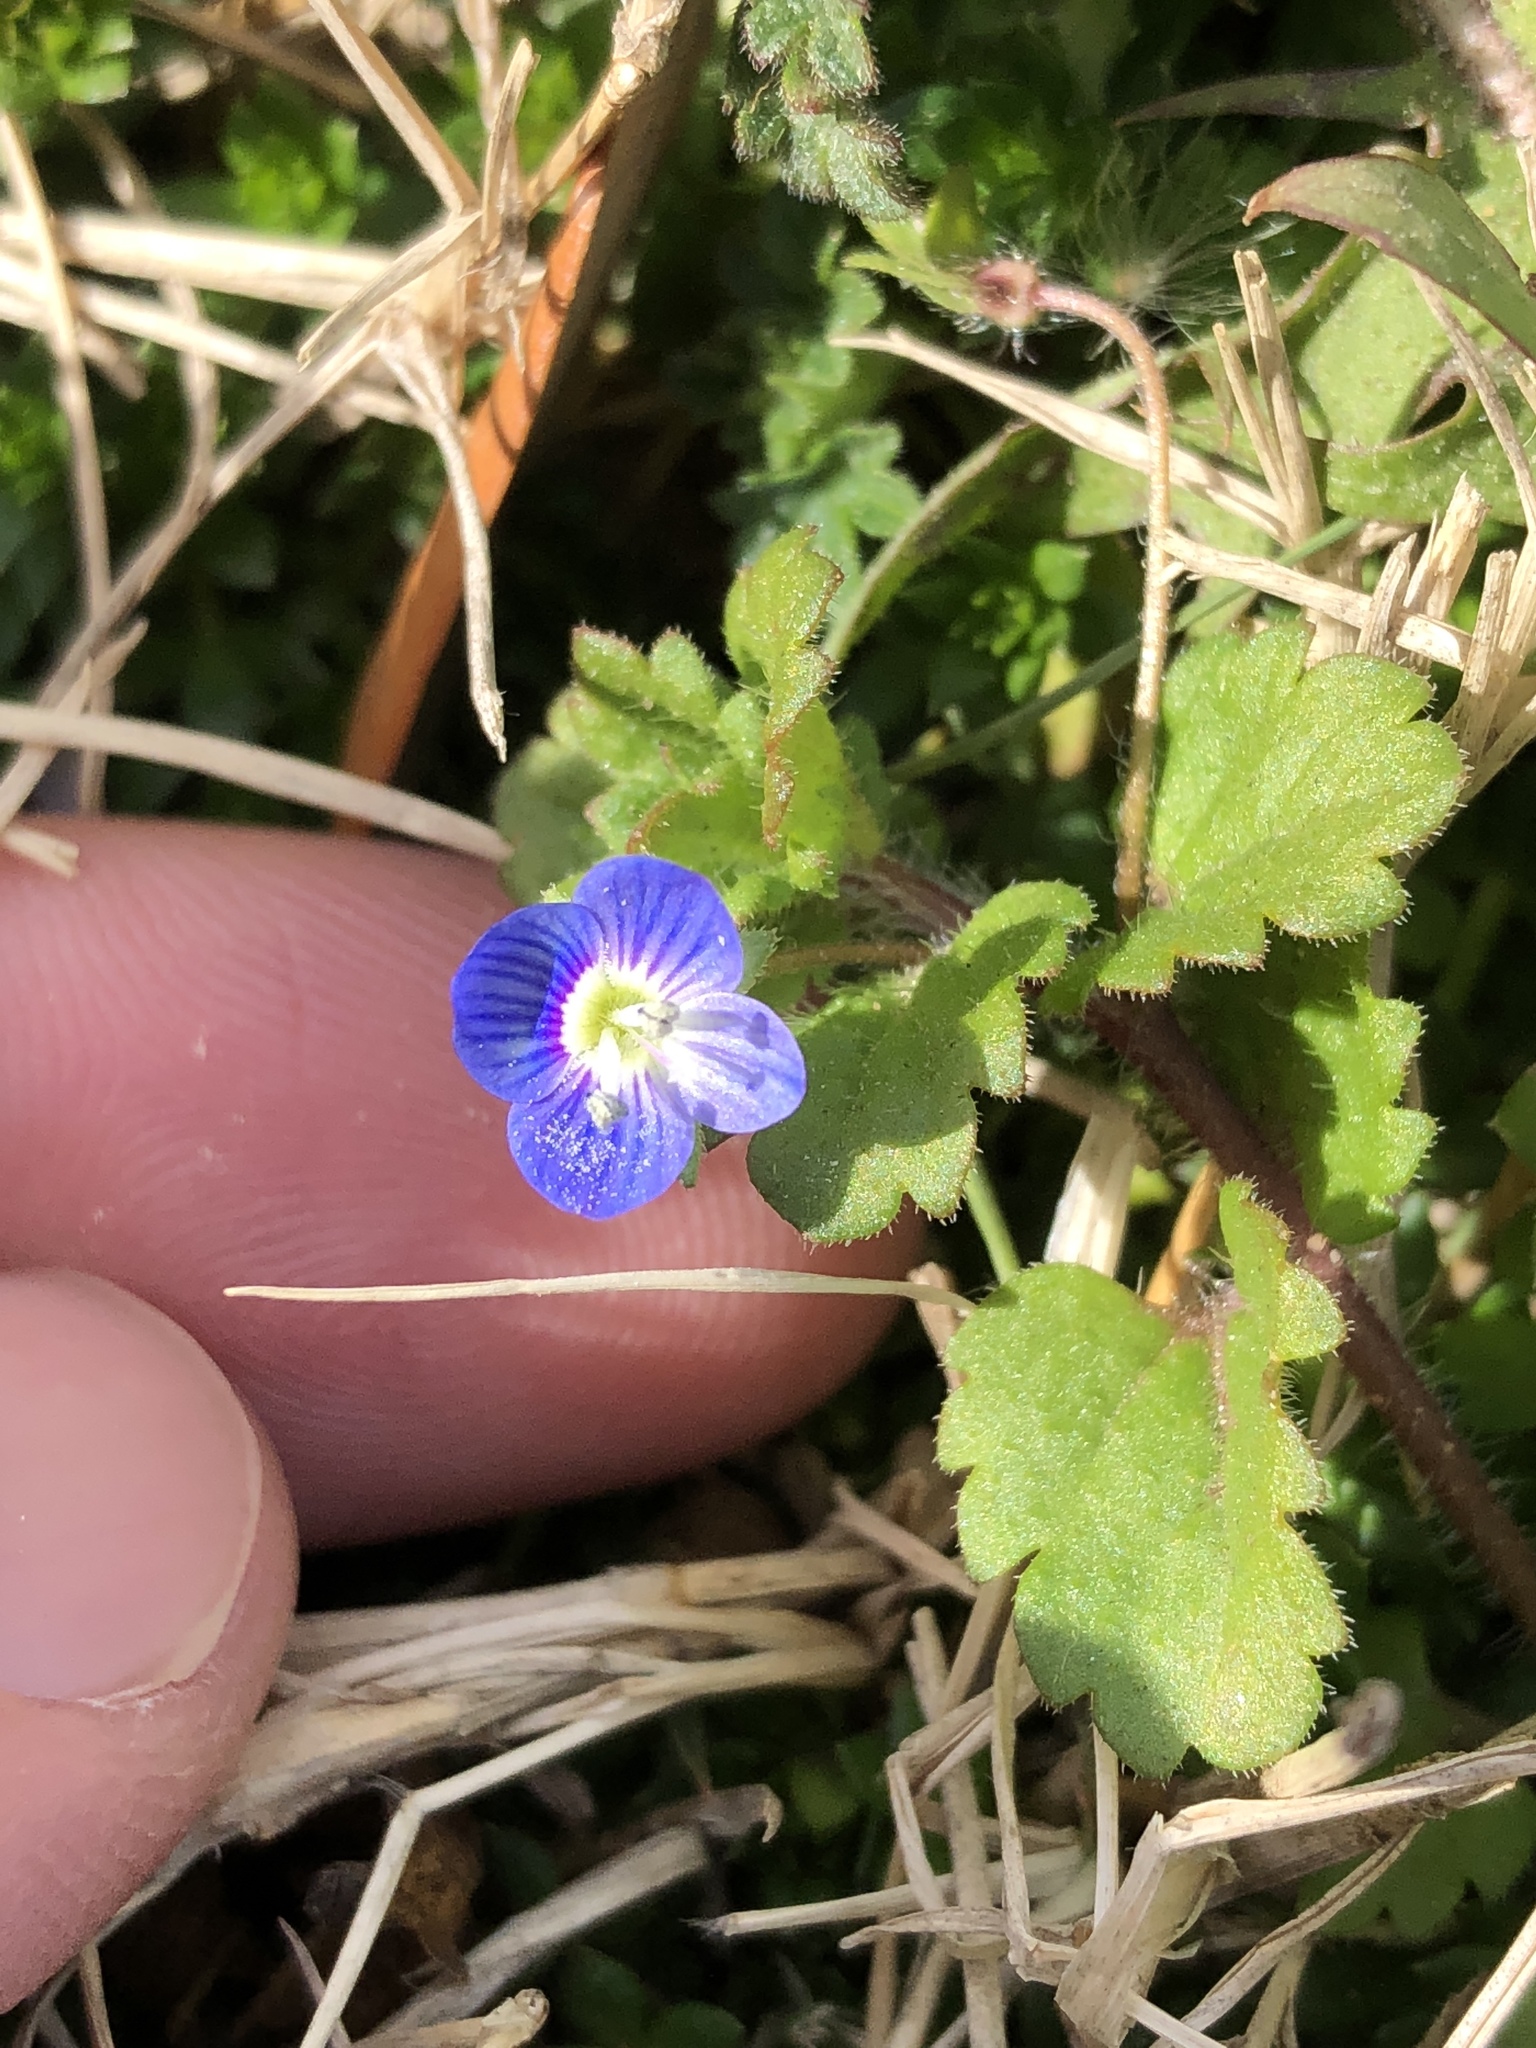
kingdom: Plantae
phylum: Tracheophyta
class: Magnoliopsida
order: Lamiales
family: Plantaginaceae
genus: Veronica
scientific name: Veronica persica
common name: Common field-speedwell
